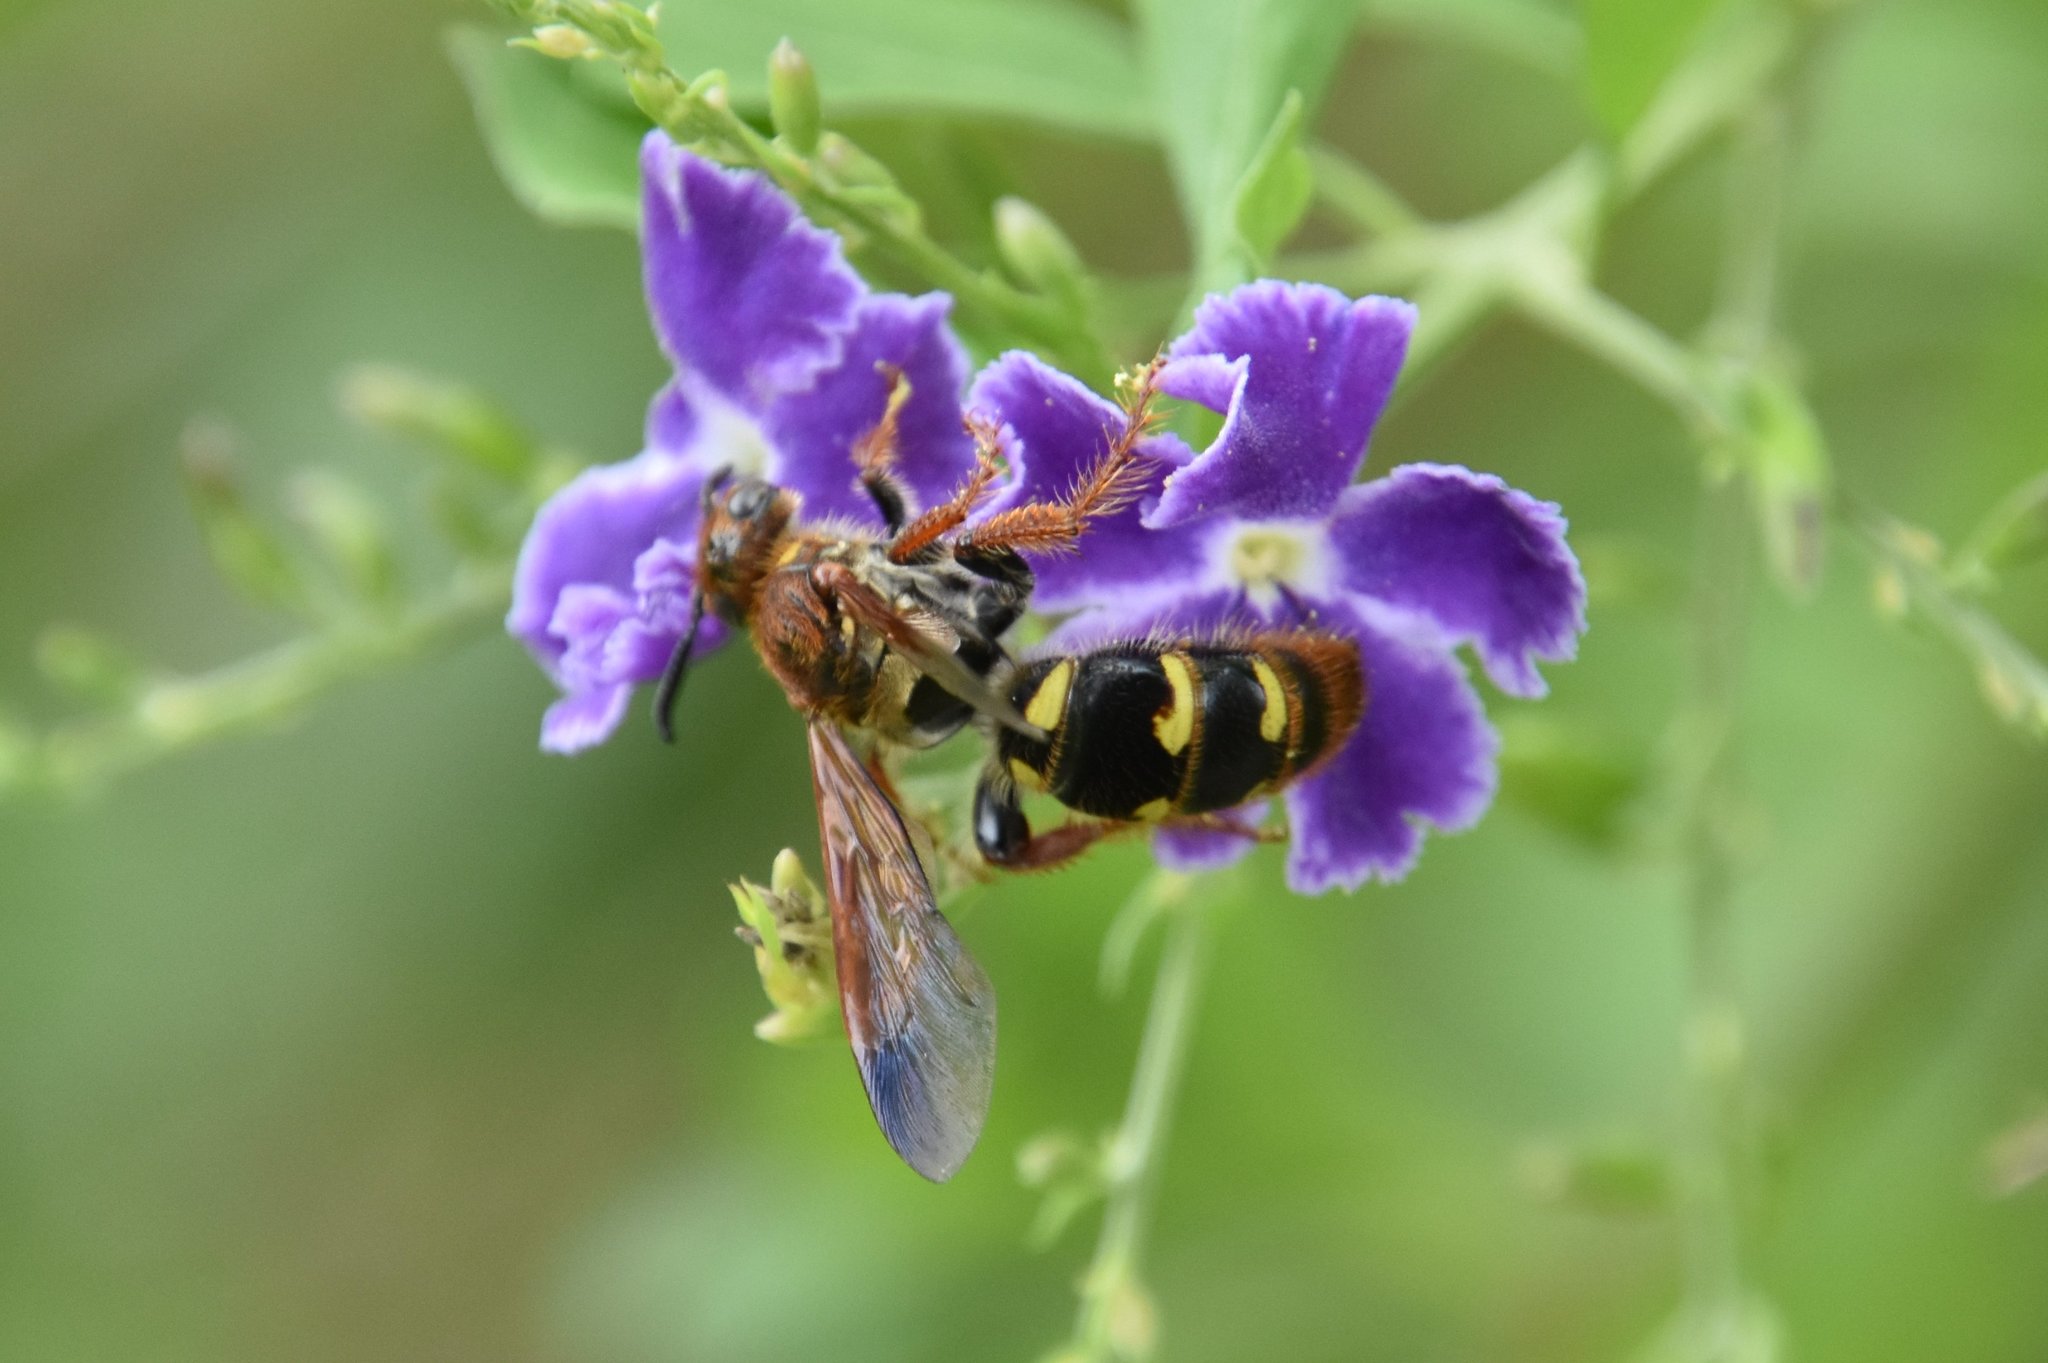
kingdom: Animalia
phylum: Arthropoda
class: Insecta
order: Hymenoptera
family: Scoliidae
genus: Xanthocampsomeris
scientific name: Xanthocampsomeris
